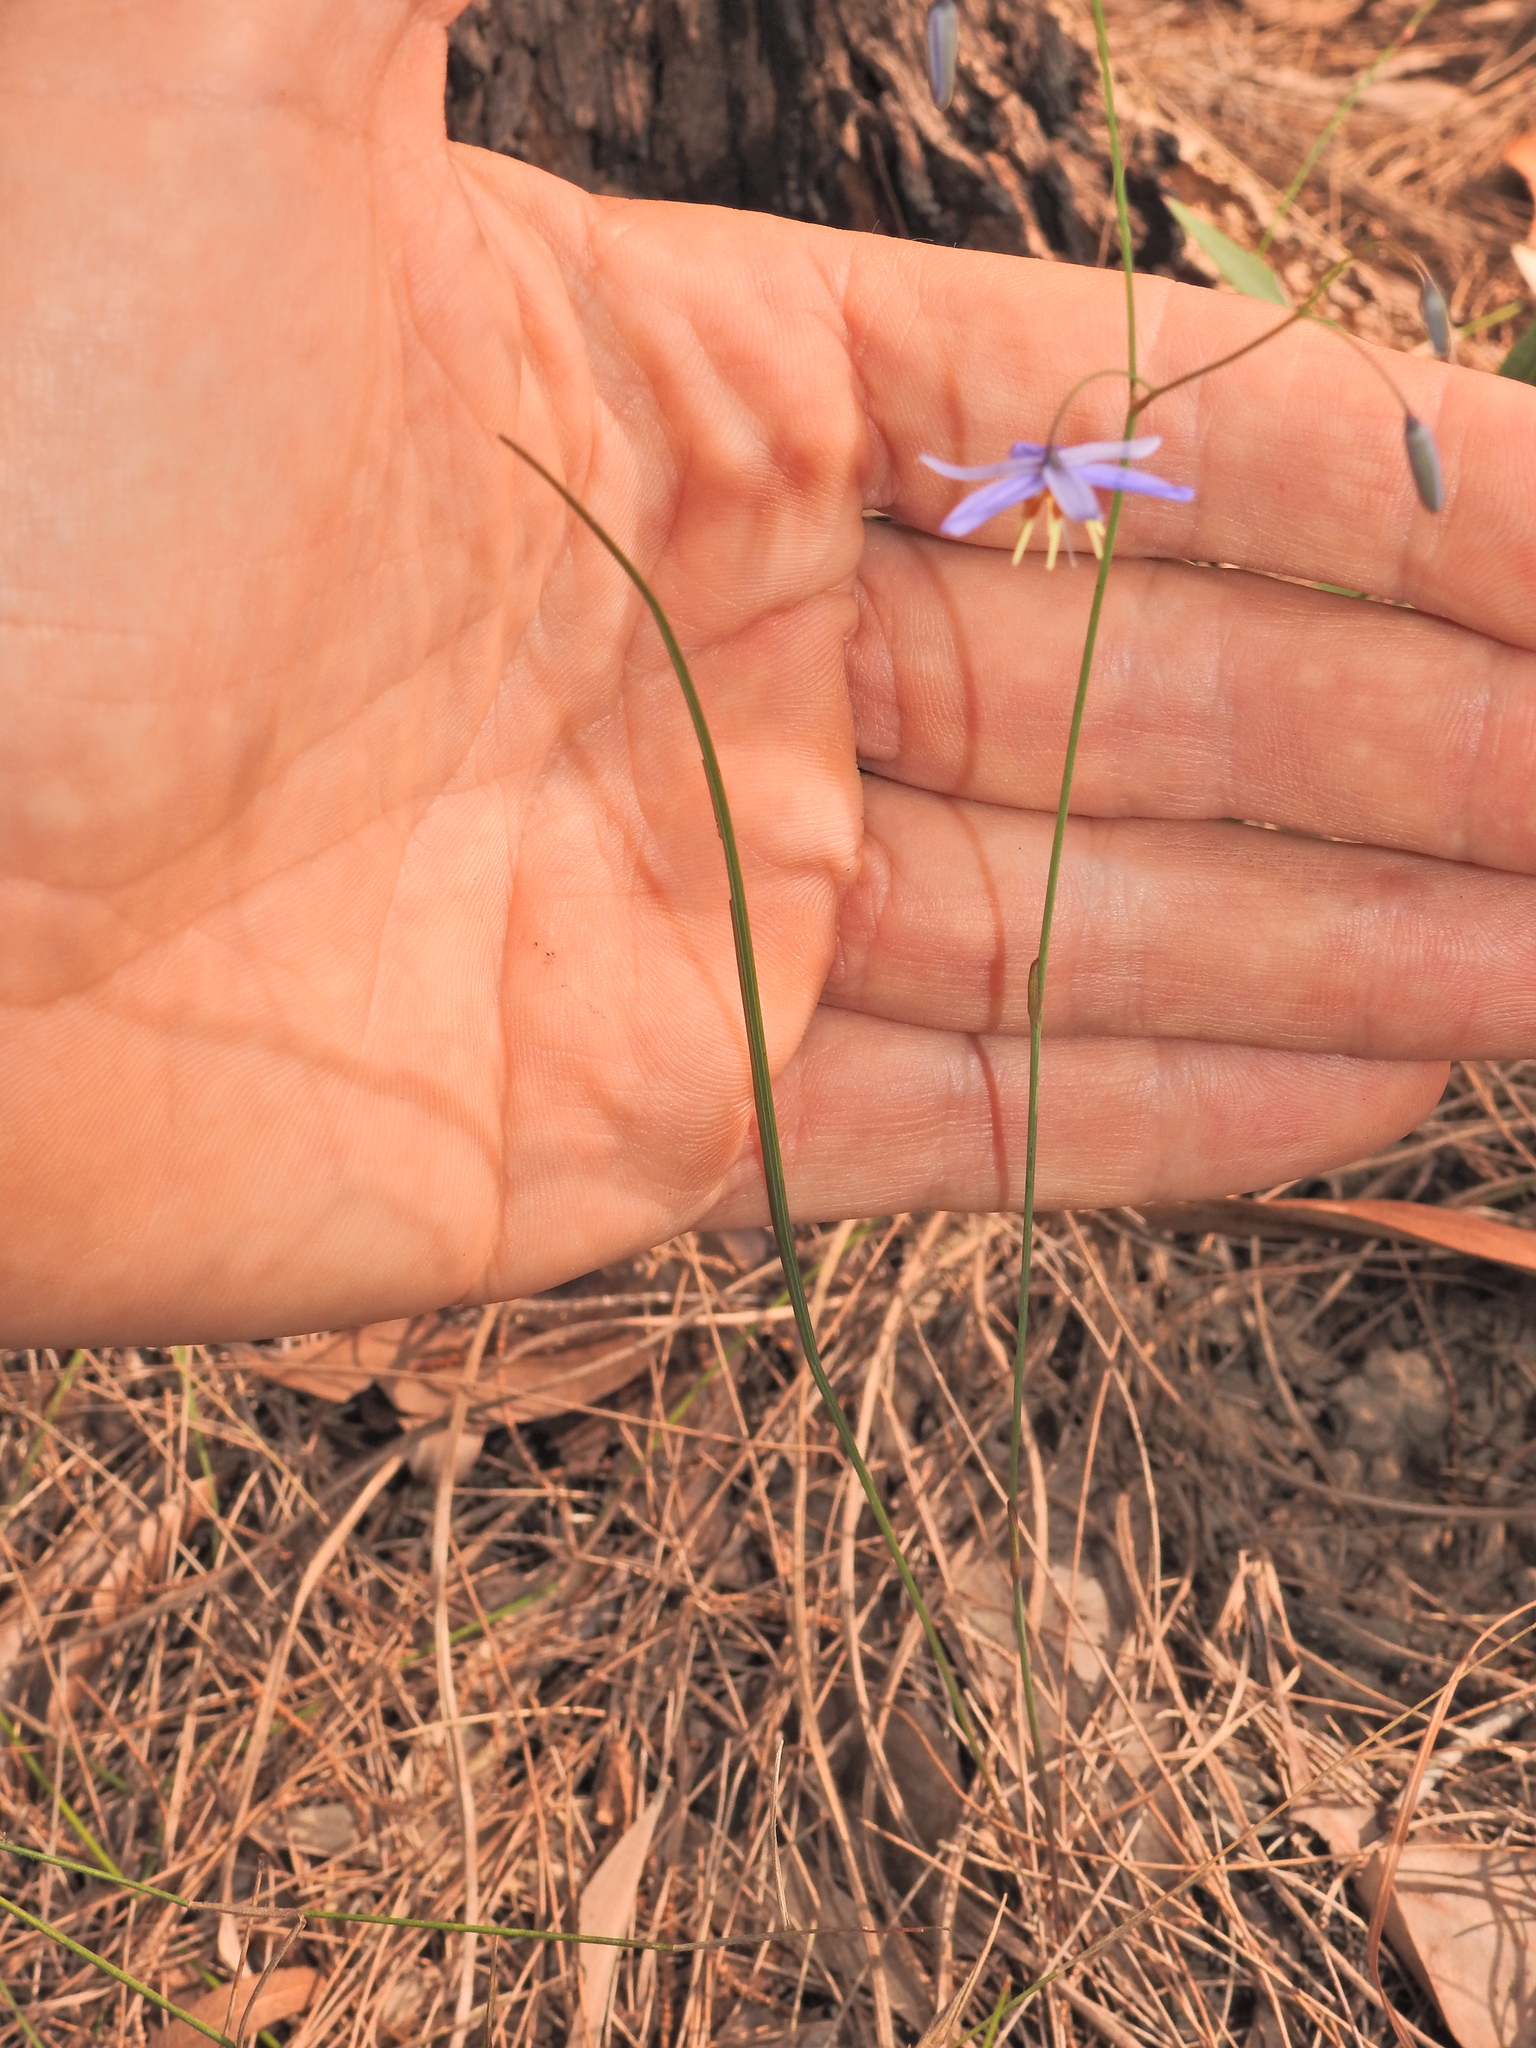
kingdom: Plantae
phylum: Tracheophyta
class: Liliopsida
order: Asparagales
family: Asphodelaceae
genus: Dianella
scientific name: Dianella rara
